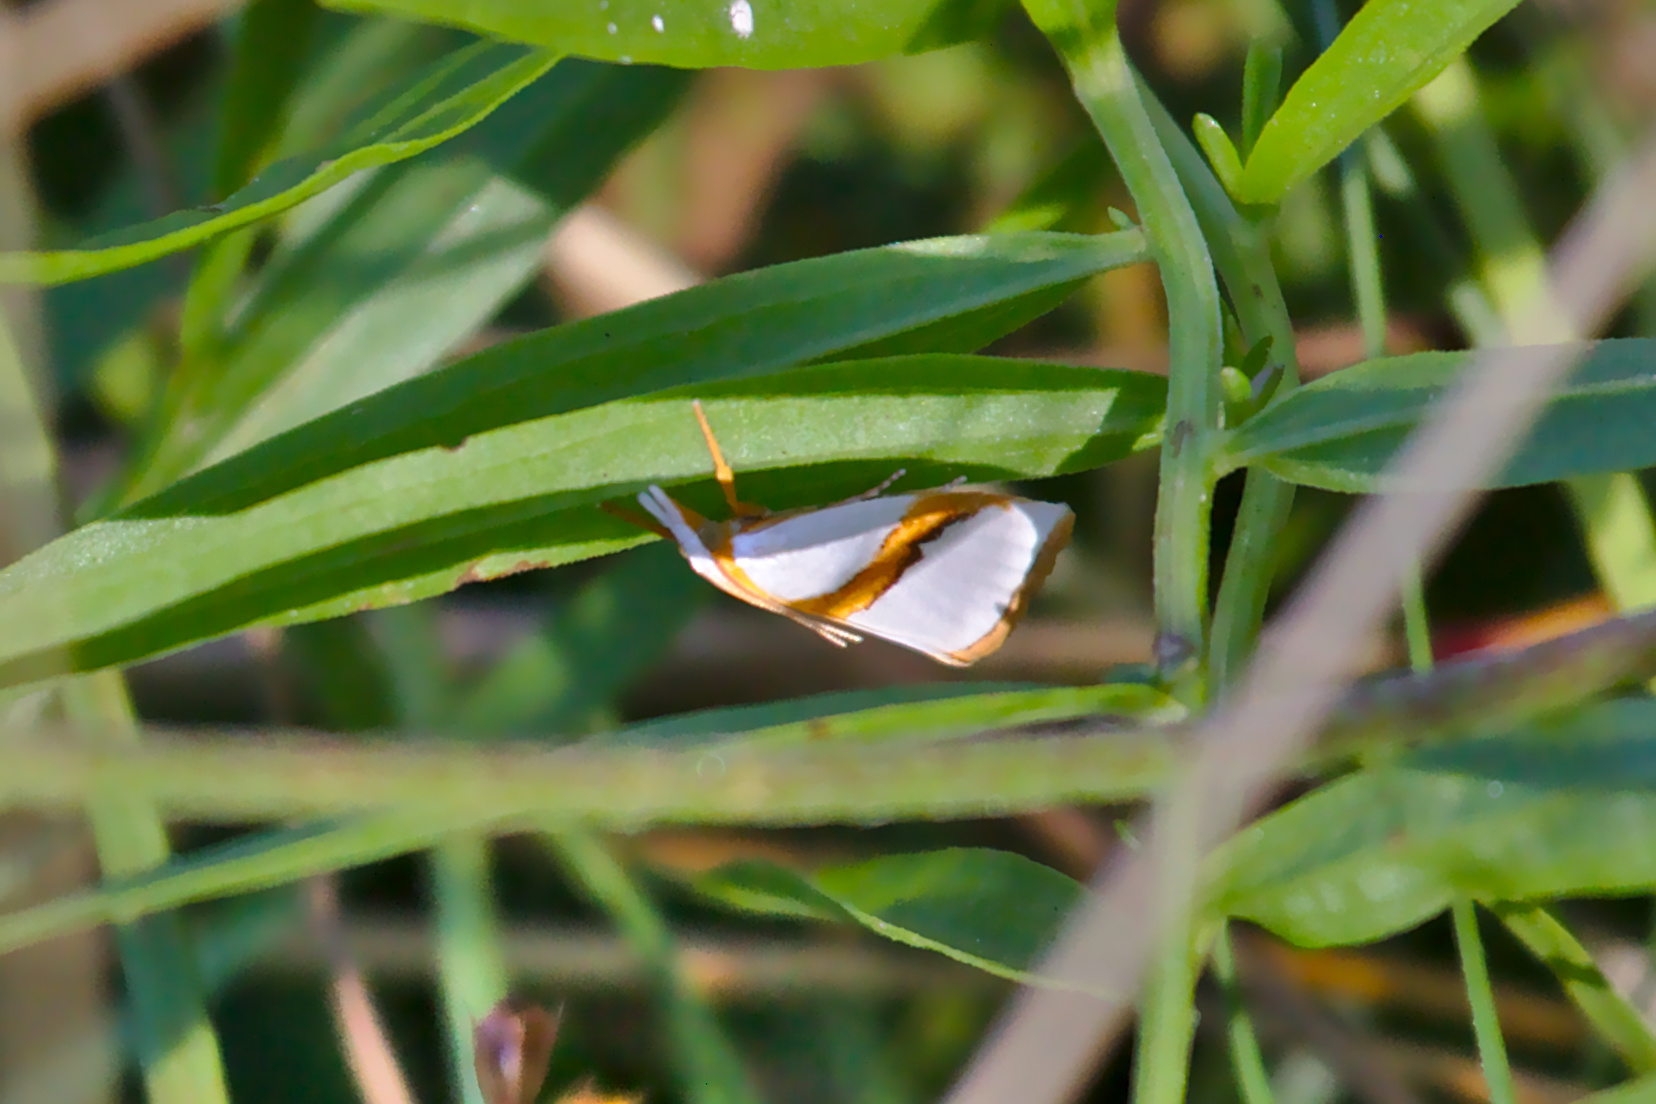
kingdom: Animalia
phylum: Arthropoda
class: Insecta
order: Lepidoptera
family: Crambidae
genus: Vaxi
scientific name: Vaxi critica
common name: Straight-lined vaxi moth
